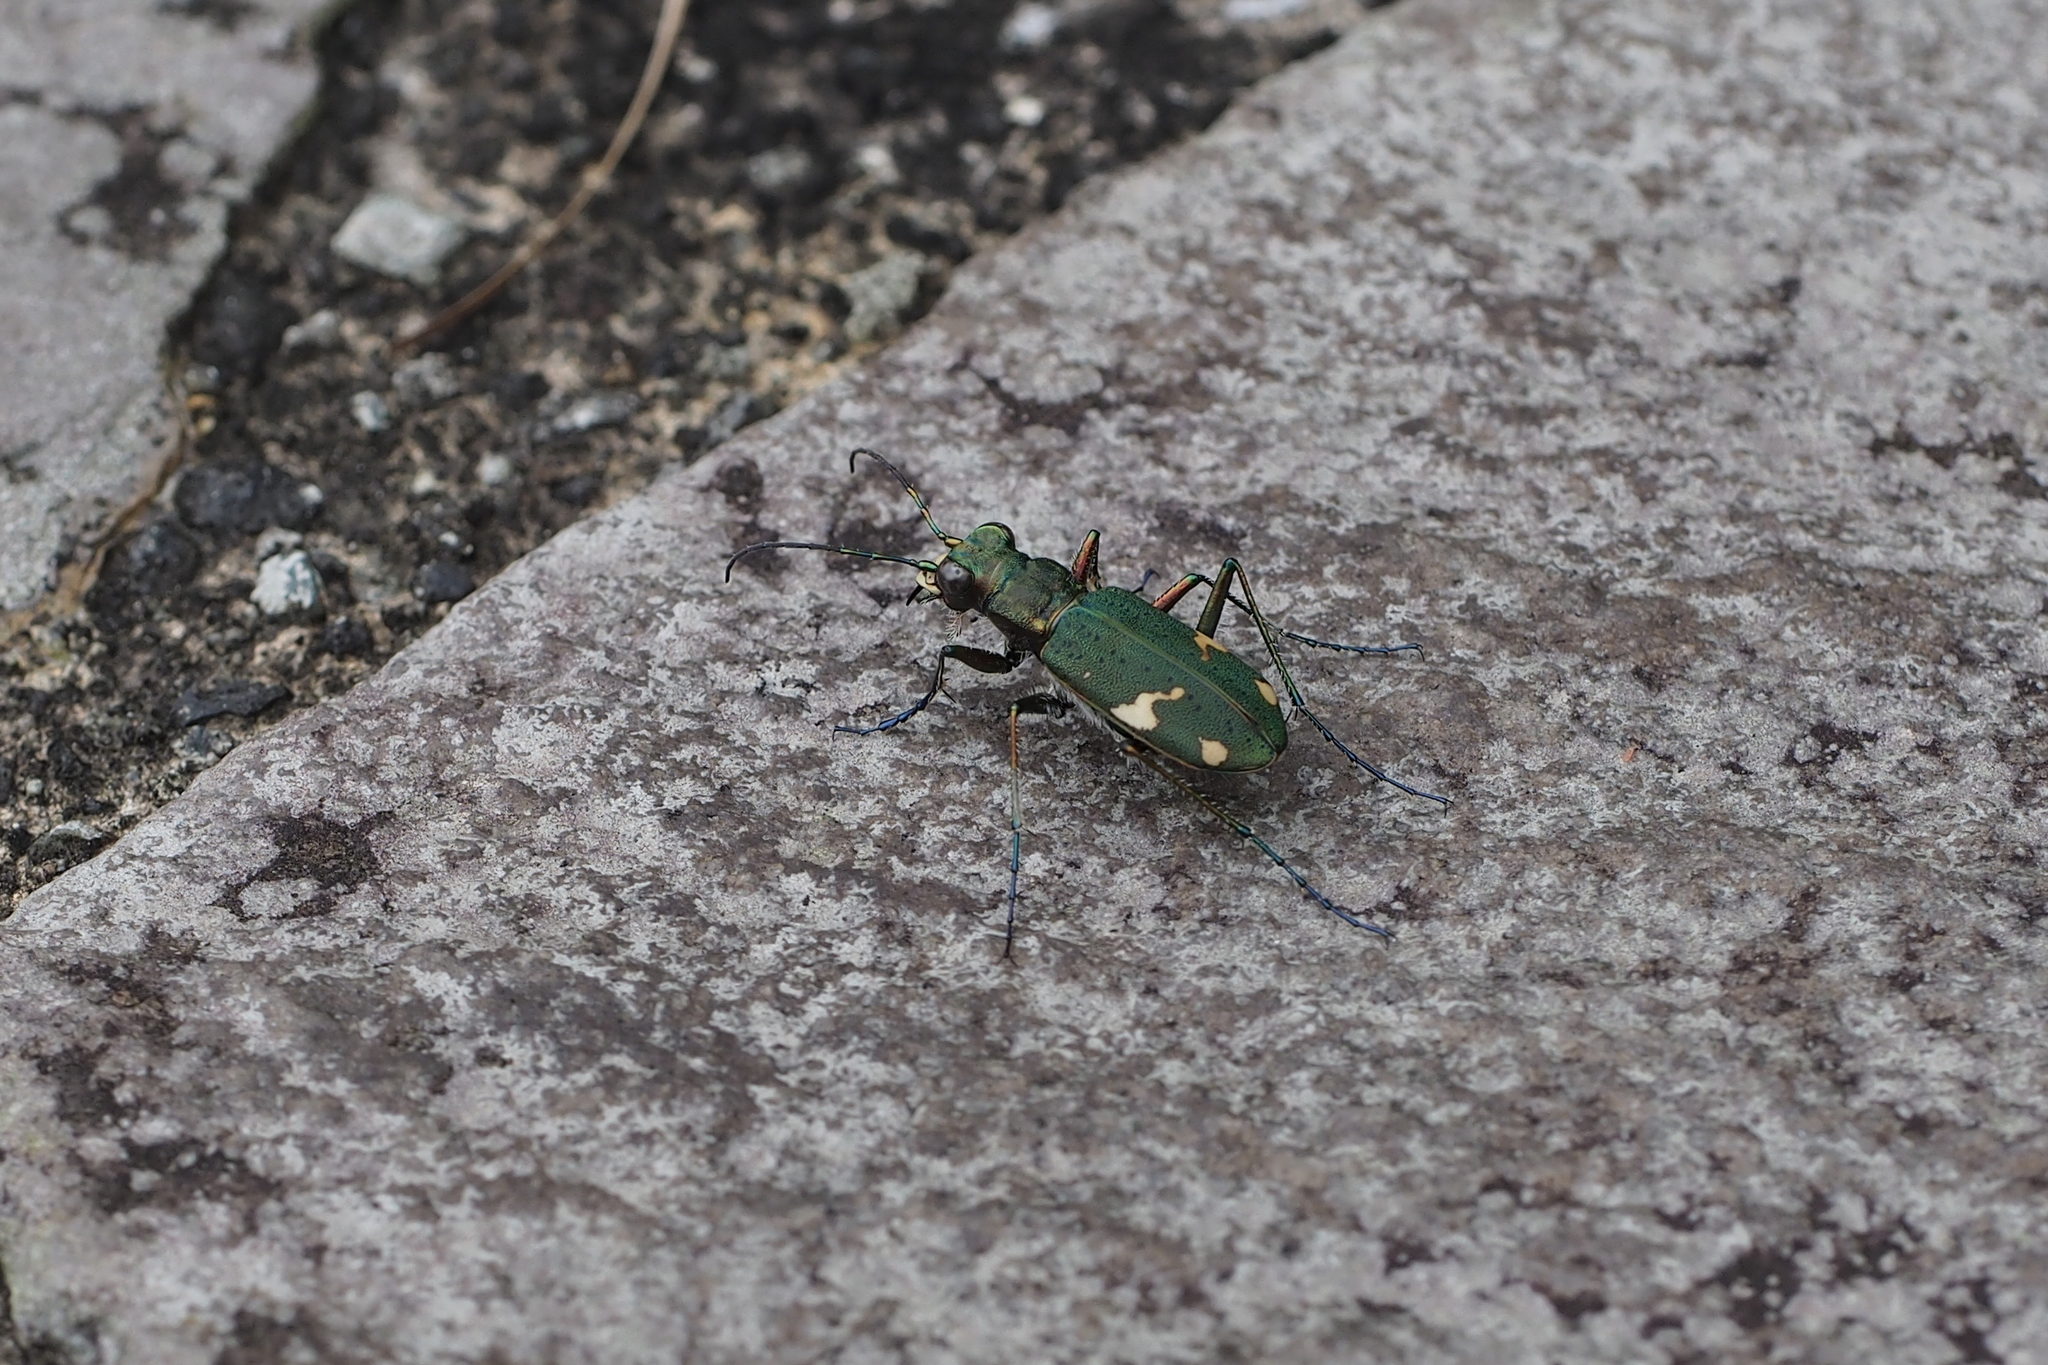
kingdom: Animalia
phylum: Arthropoda
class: Insecta
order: Coleoptera
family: Carabidae
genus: Cicindela
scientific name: Cicindela japana
